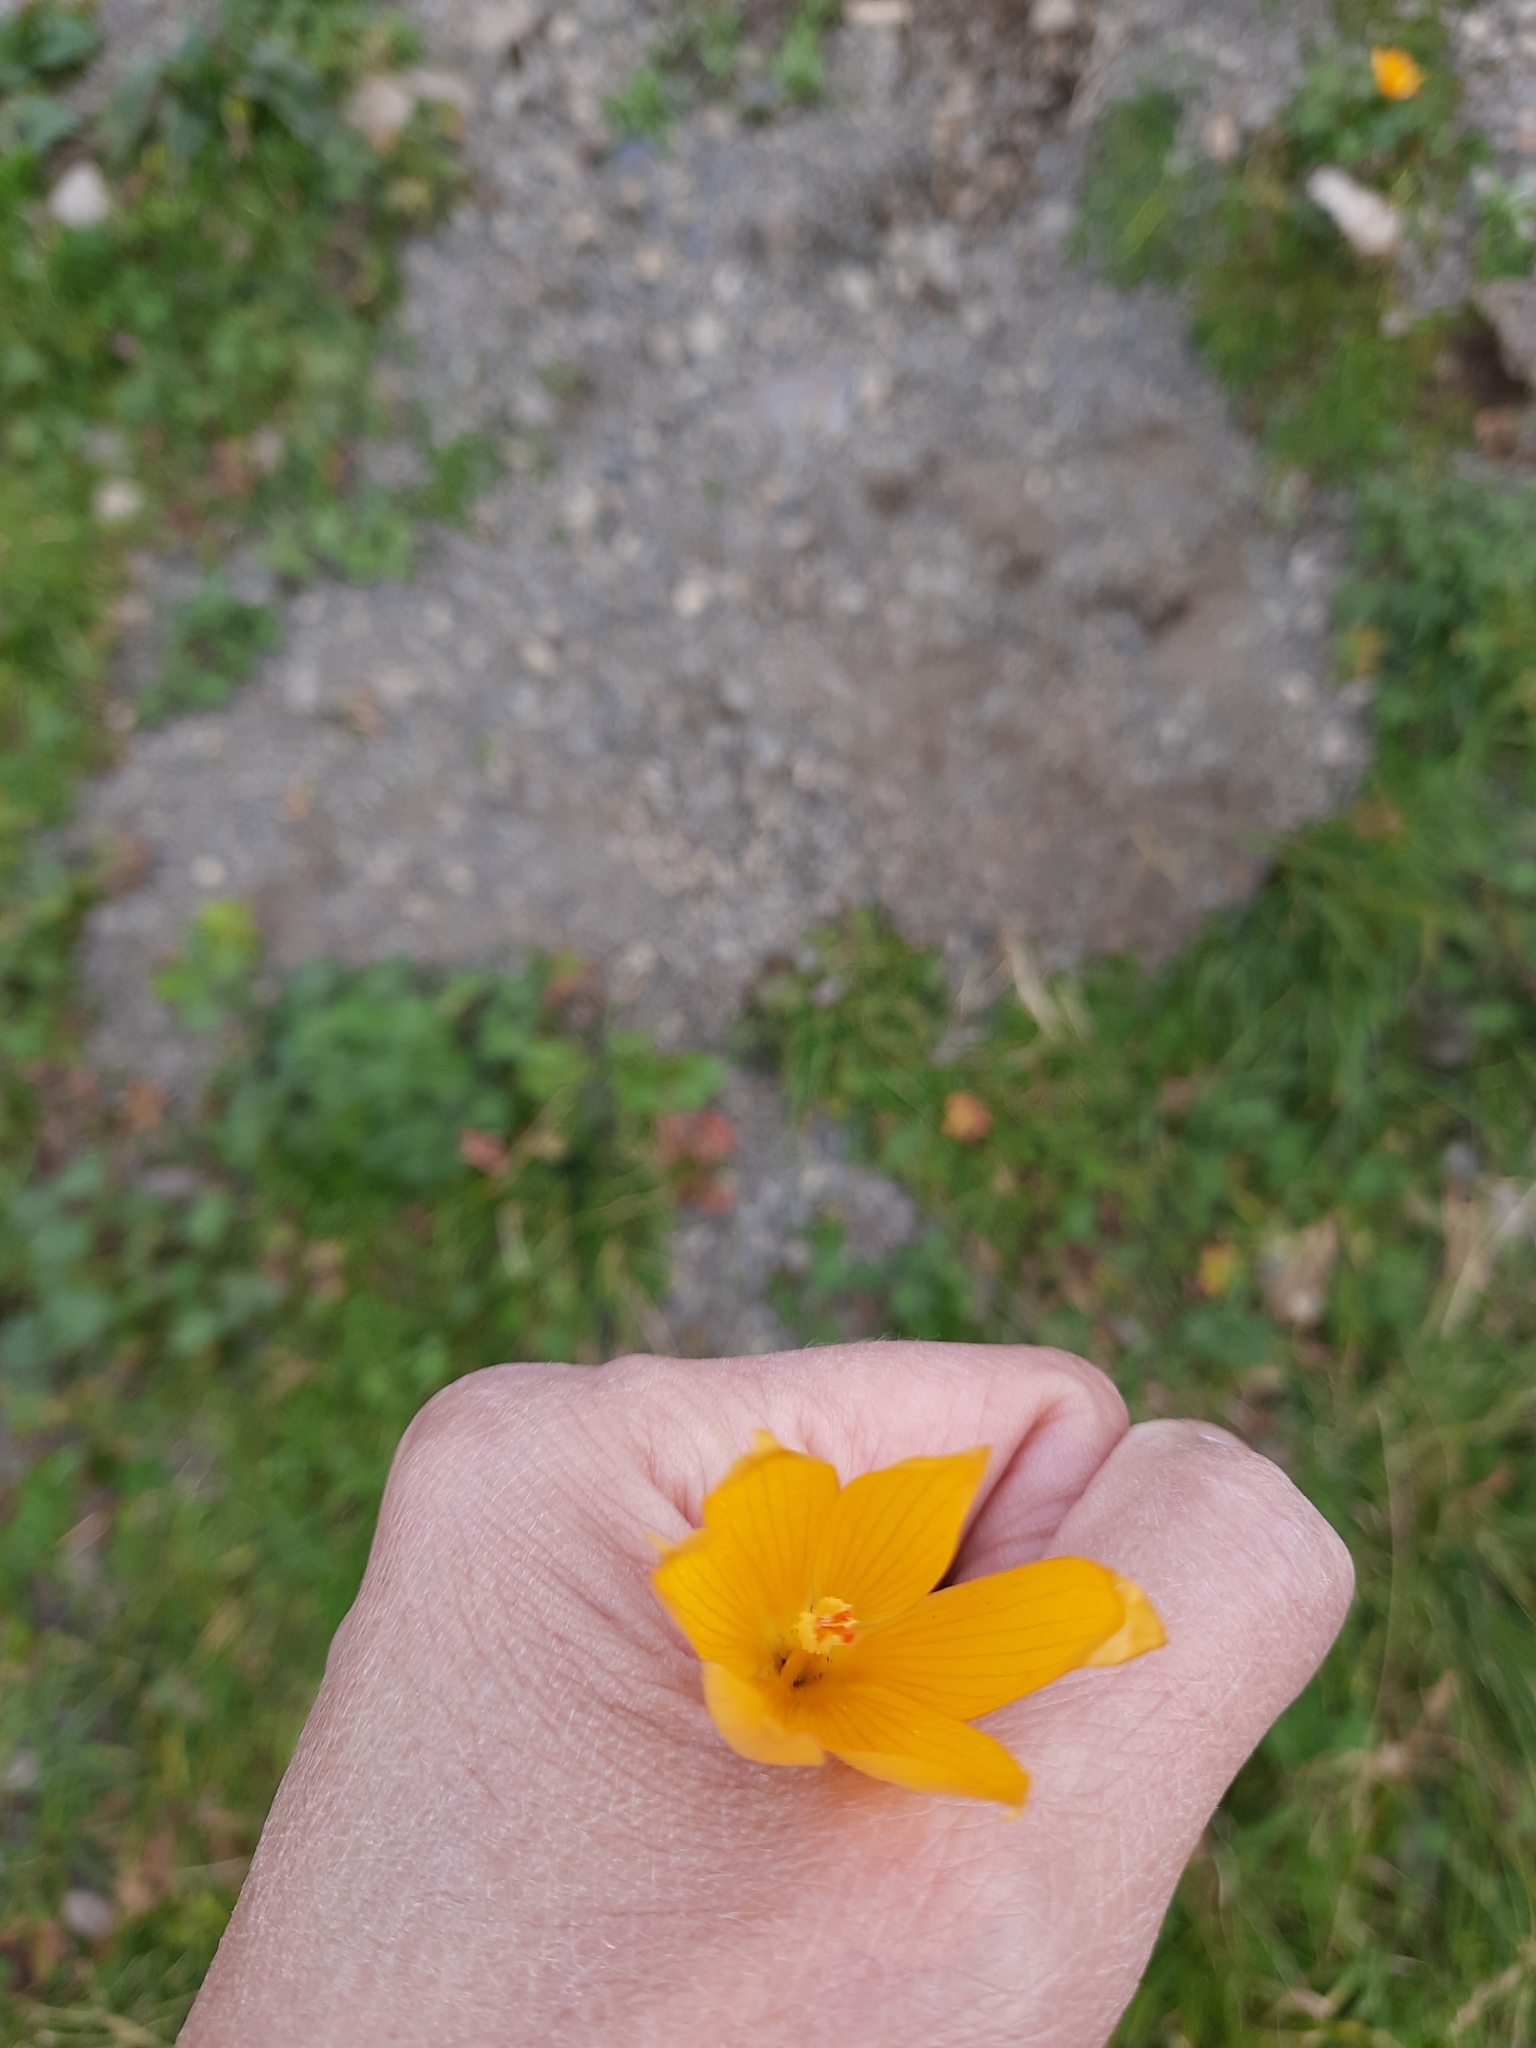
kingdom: Plantae
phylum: Tracheophyta
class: Liliopsida
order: Asparagales
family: Iridaceae
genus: Crocus
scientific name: Crocus scharojanii
